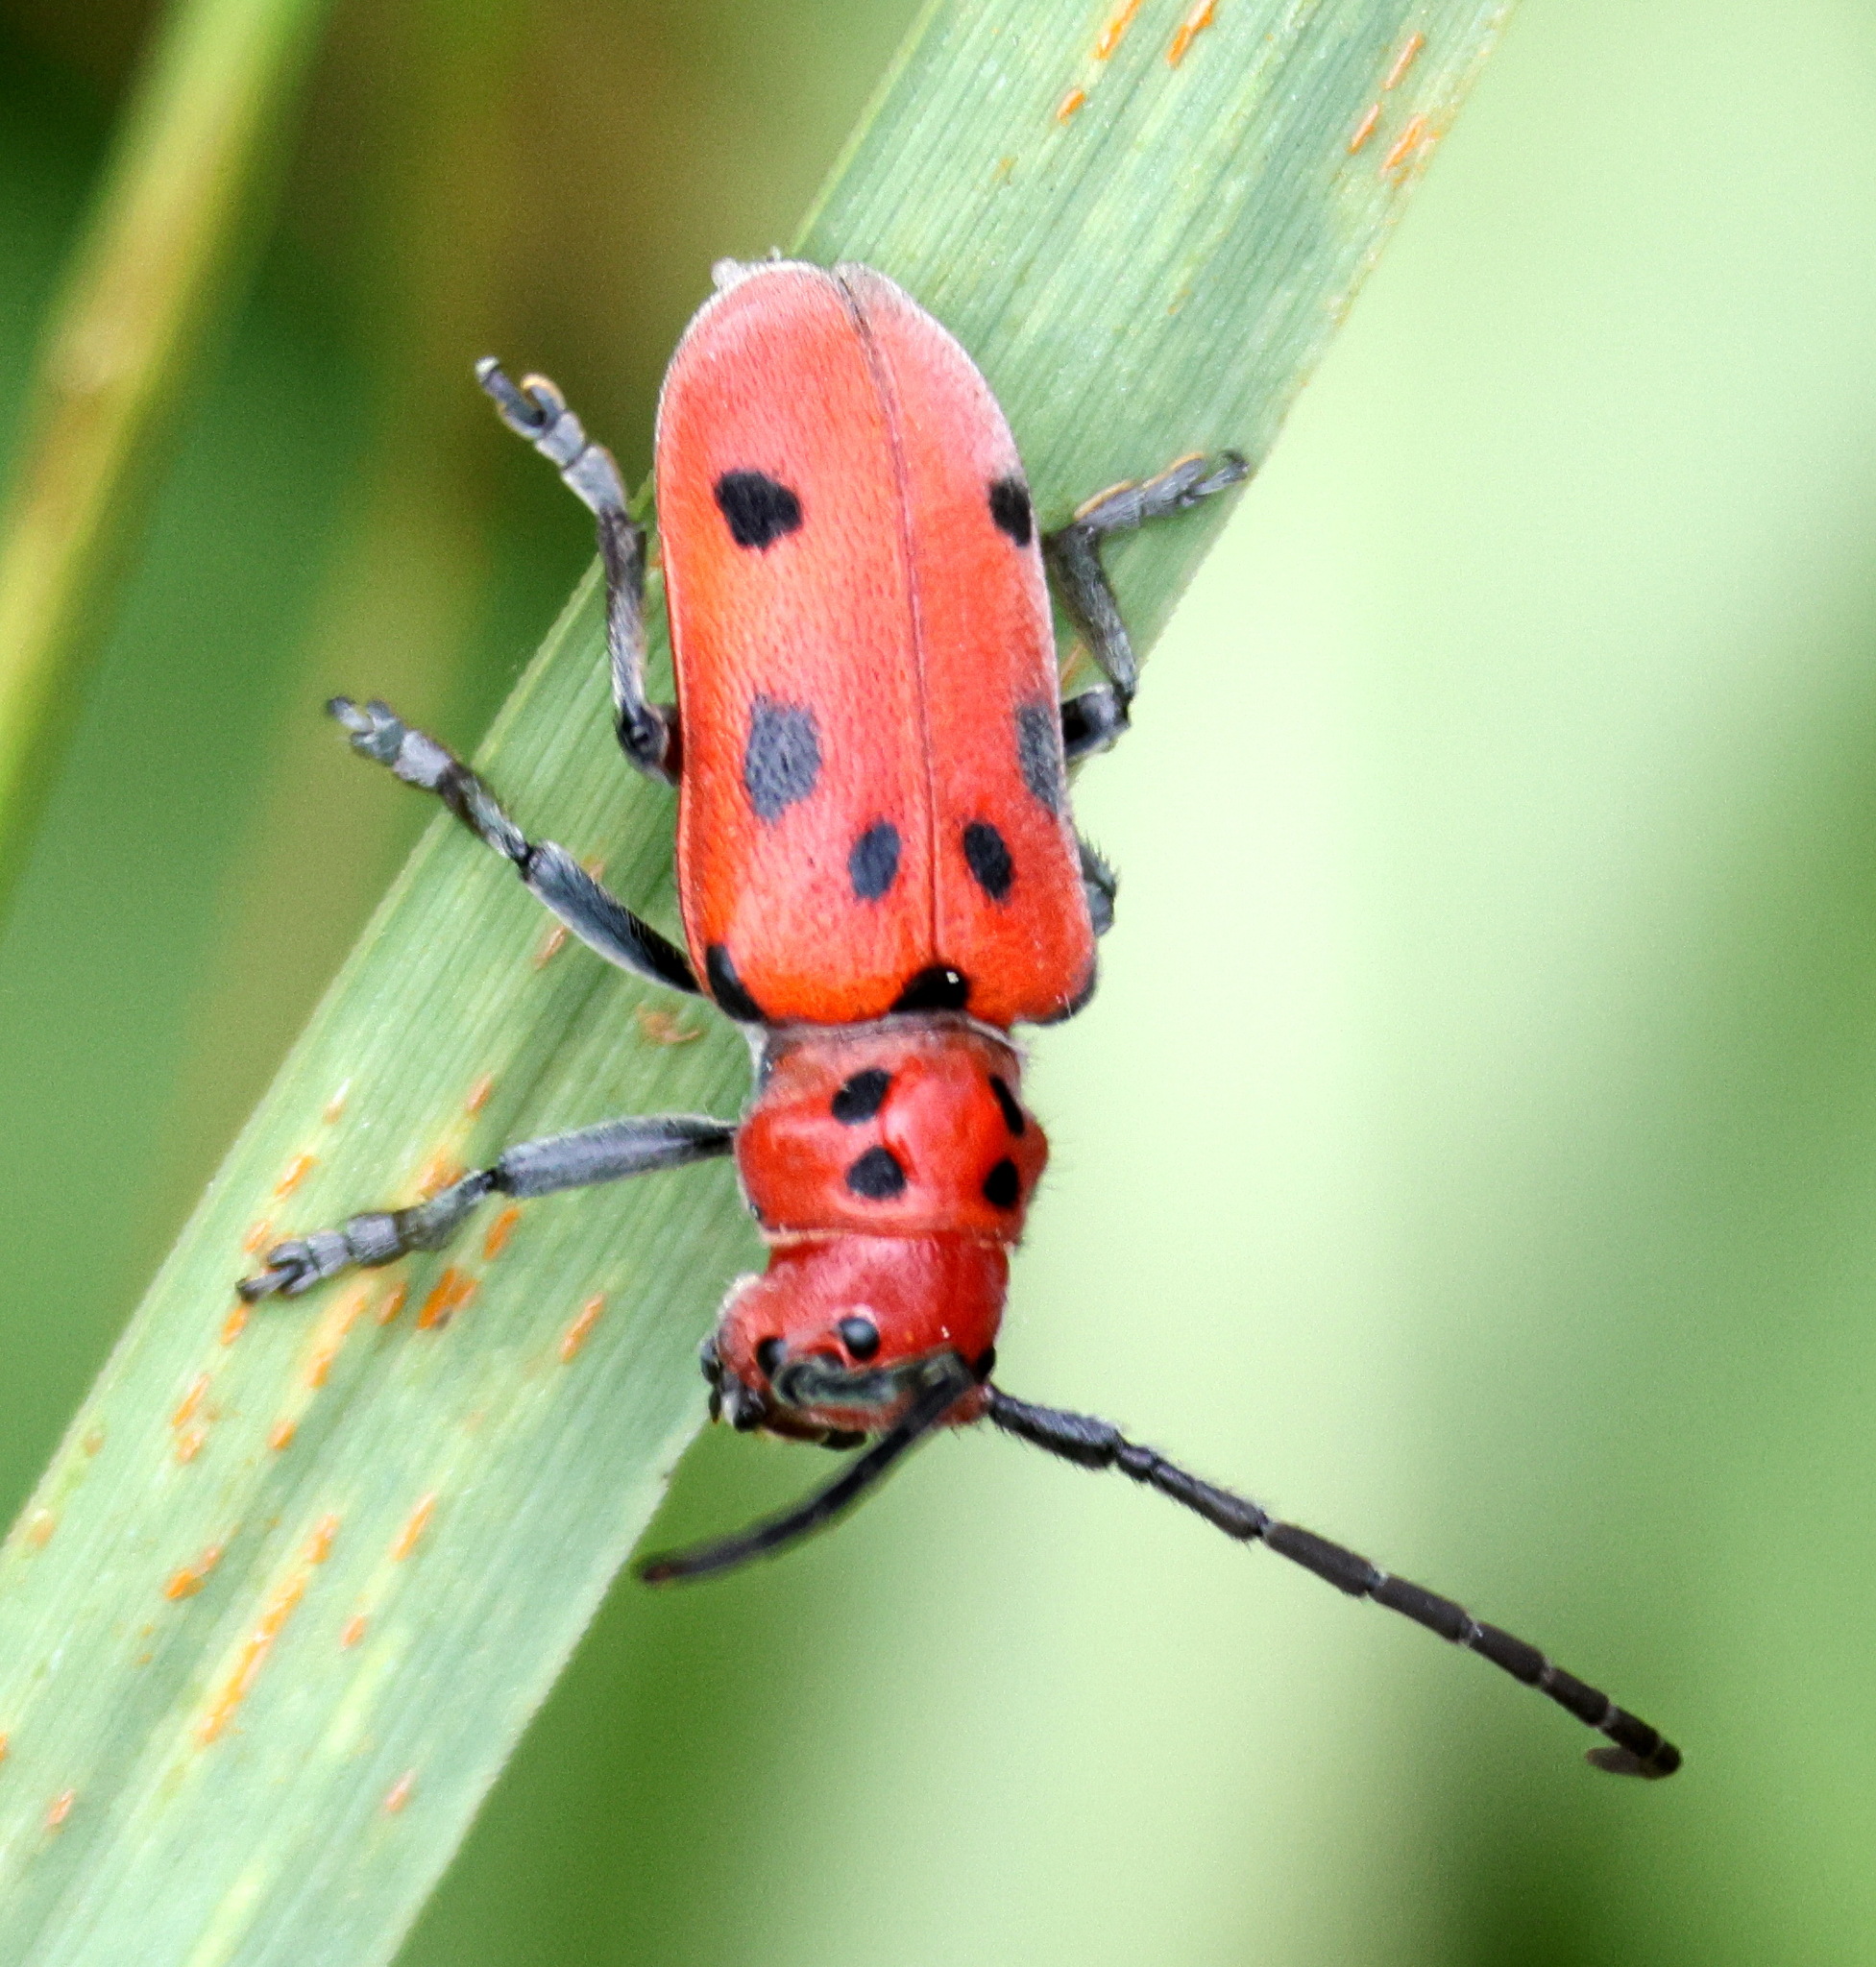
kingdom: Animalia
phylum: Arthropoda
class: Insecta
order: Coleoptera
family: Cerambycidae
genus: Tetraopes
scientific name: Tetraopes tetrophthalmus
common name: Red milkweed beetle
